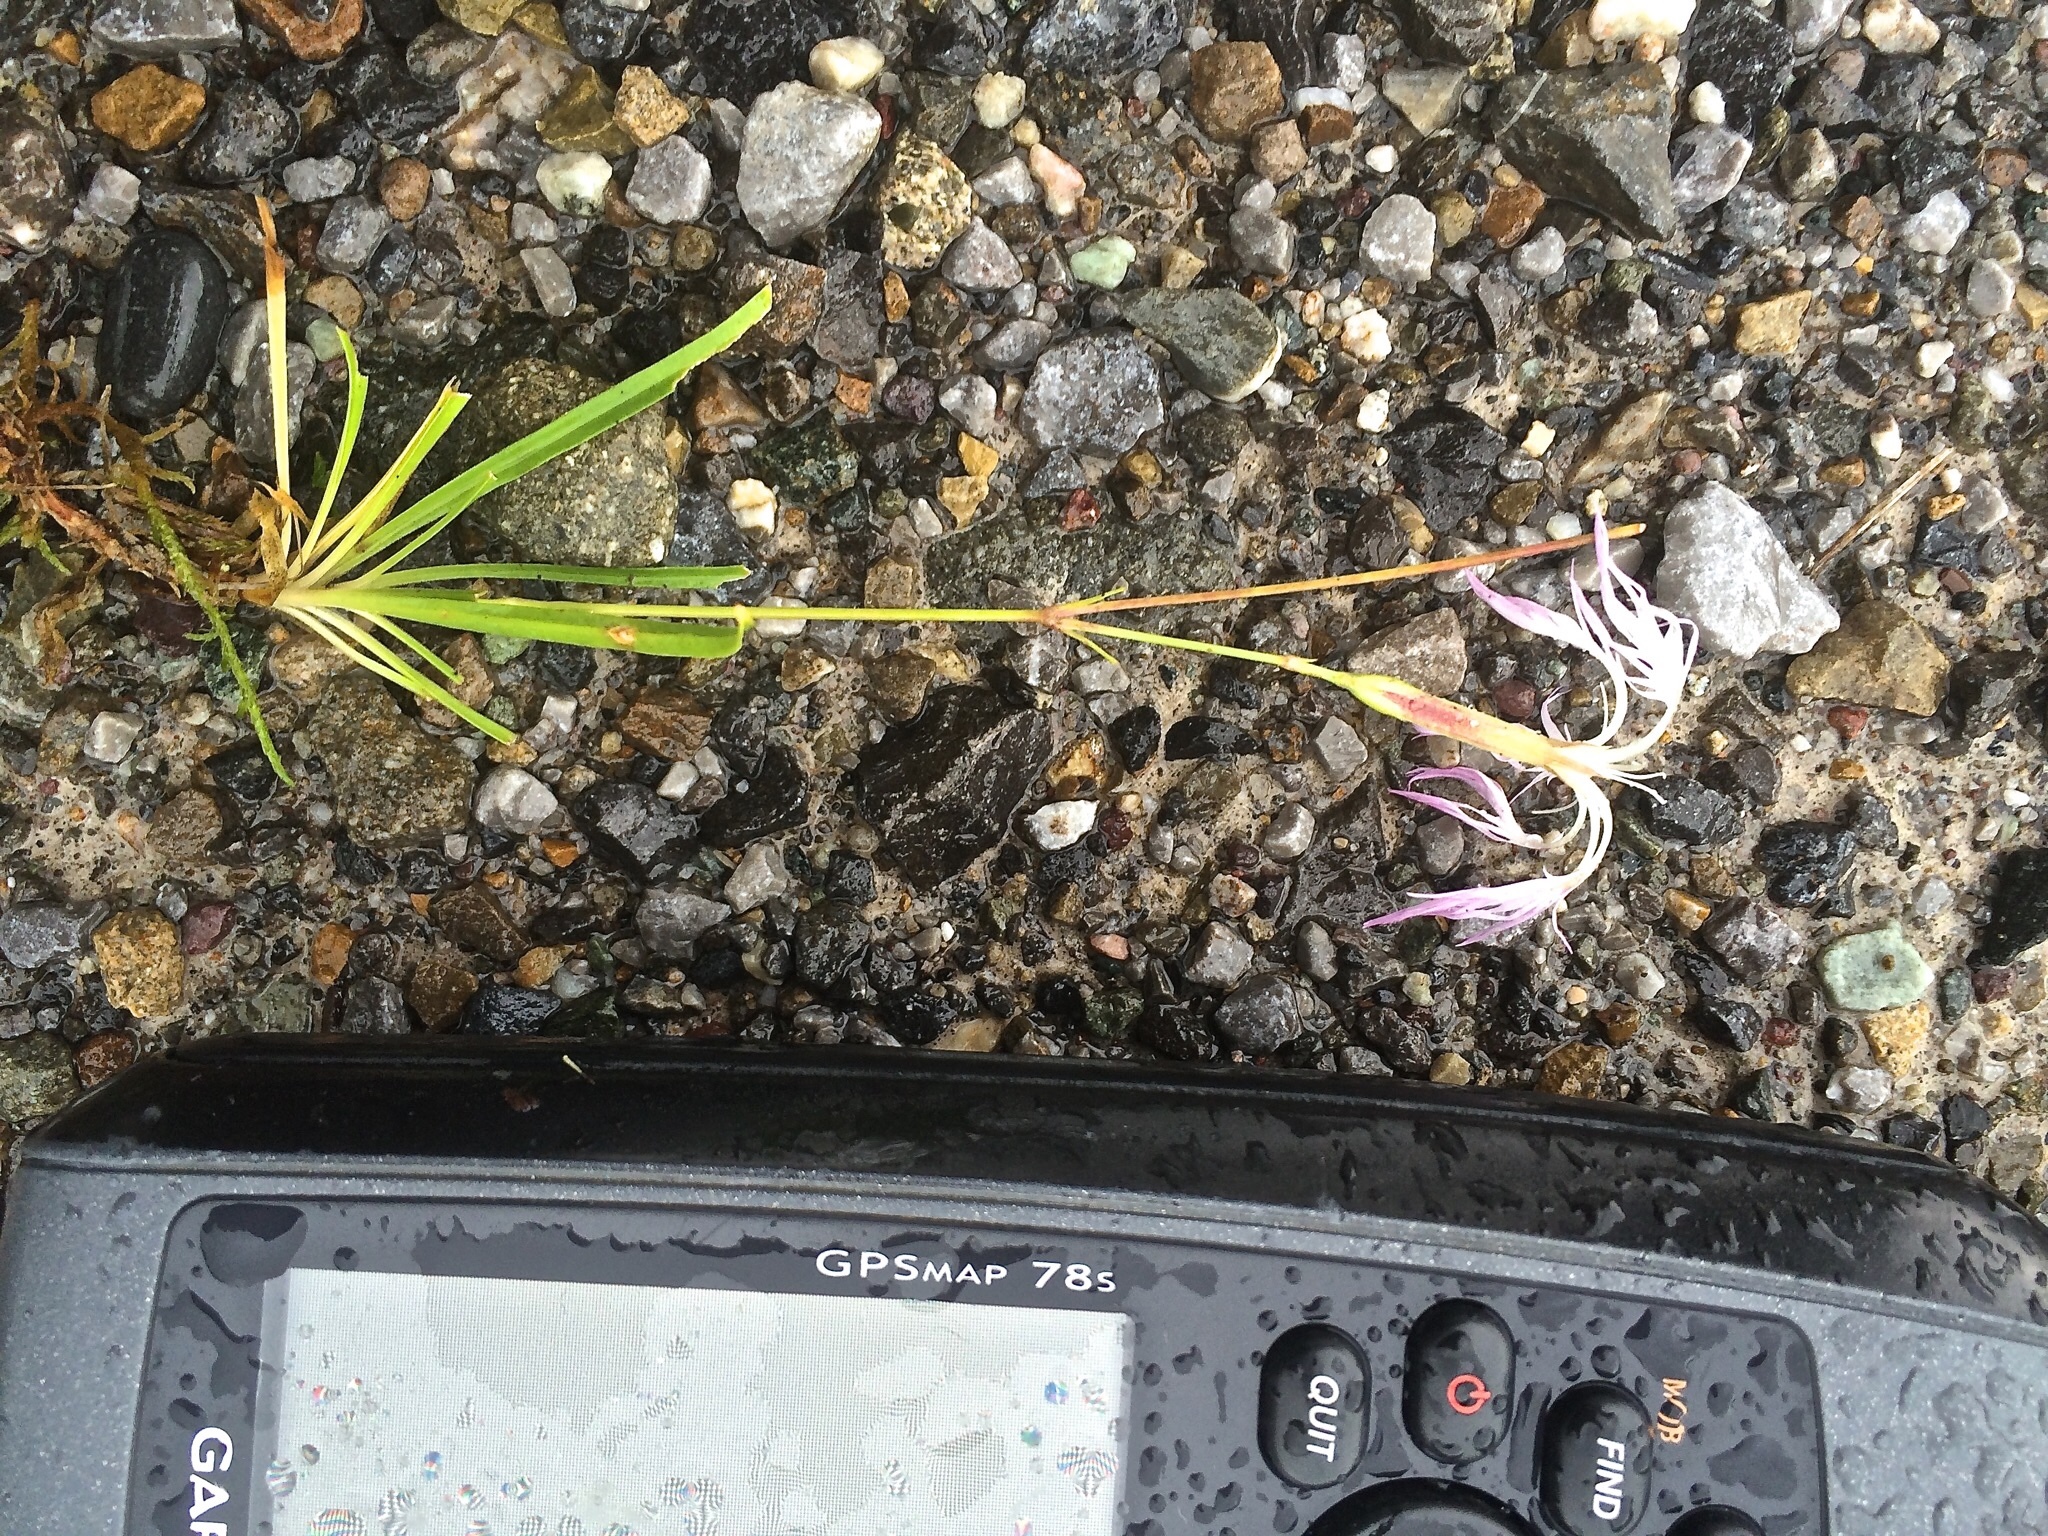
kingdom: Plantae
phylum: Tracheophyta
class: Magnoliopsida
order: Caryophyllales
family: Caryophyllaceae
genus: Dianthus
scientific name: Dianthus superbus
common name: Fringed pink
